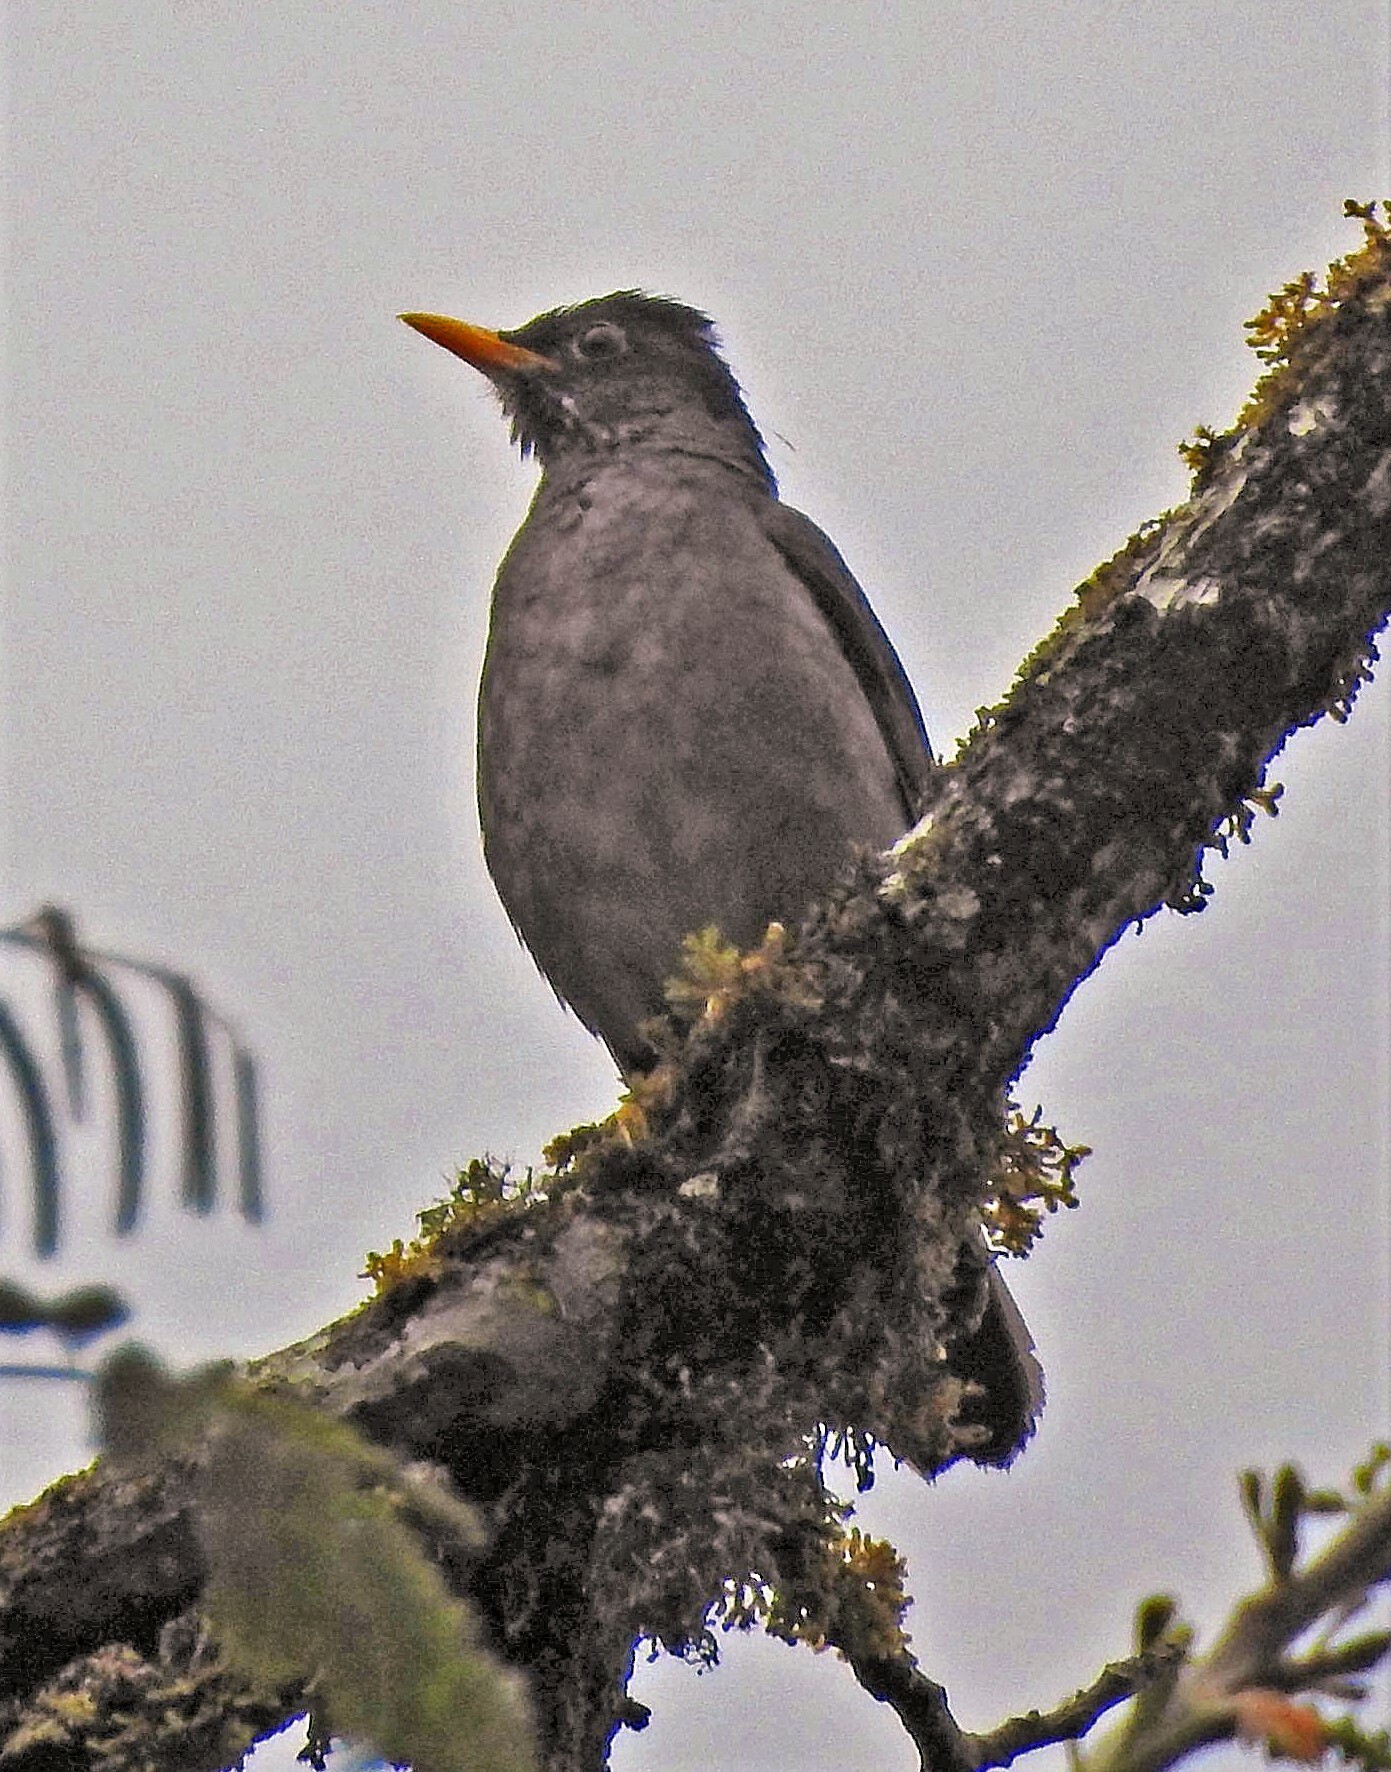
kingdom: Animalia
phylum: Chordata
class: Aves
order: Passeriformes
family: Turdidae
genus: Turdus
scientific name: Turdus nigriceps
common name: Andean slaty thrush
